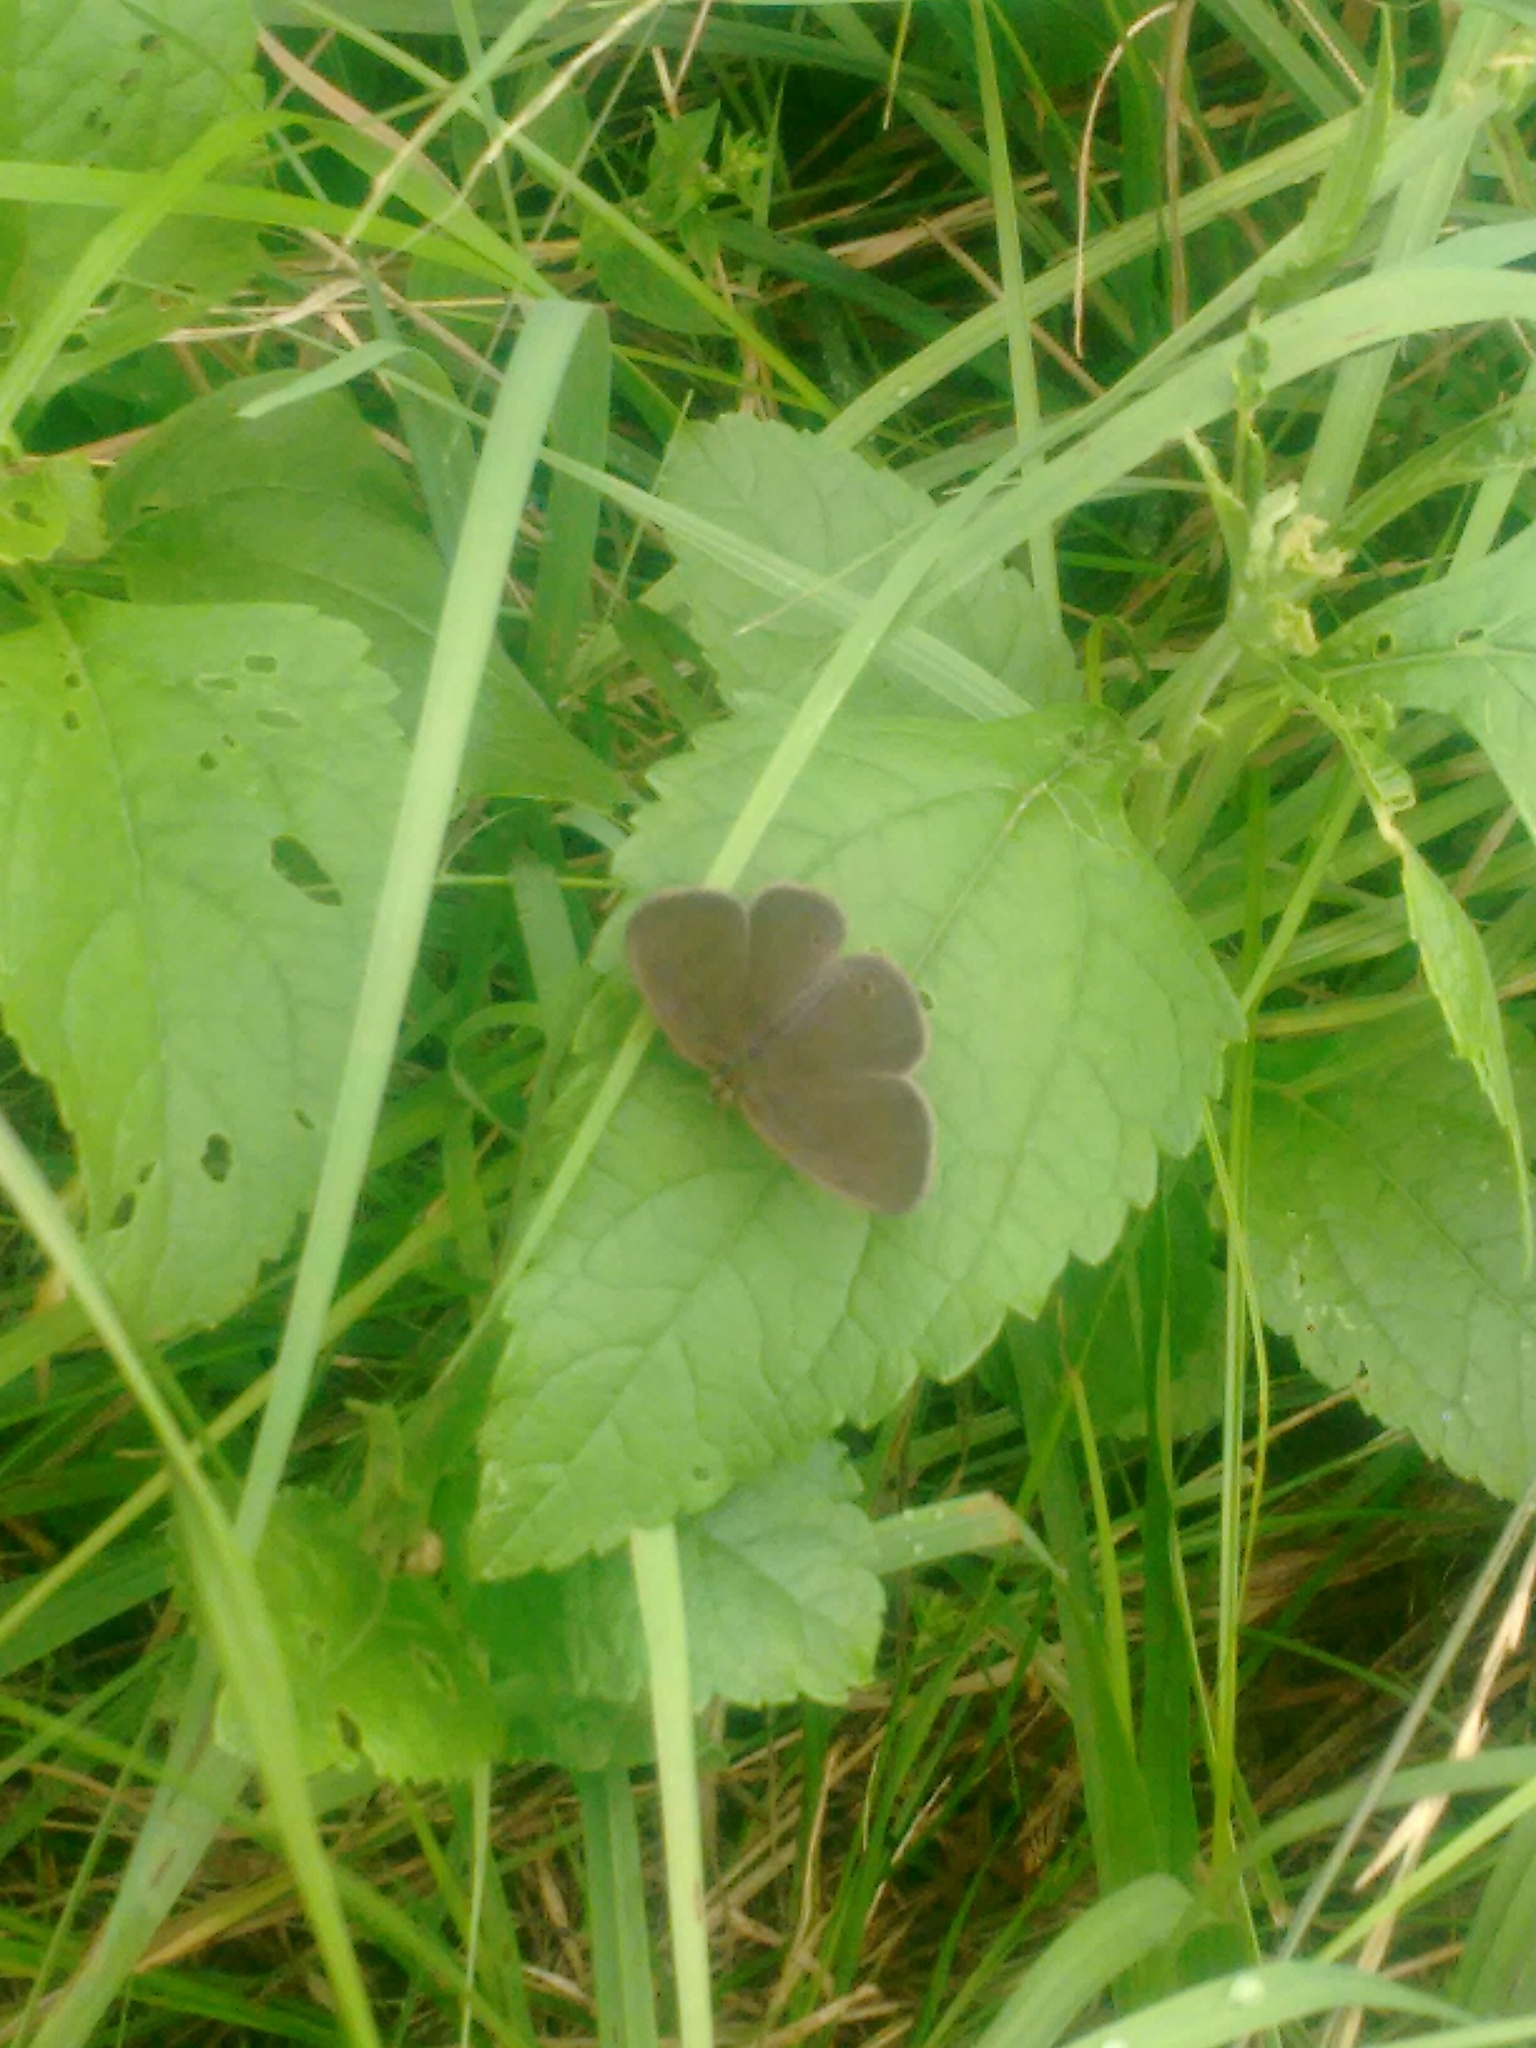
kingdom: Animalia
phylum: Arthropoda
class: Insecta
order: Lepidoptera
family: Nymphalidae
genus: Yphthimoides
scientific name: Yphthimoides celmis
